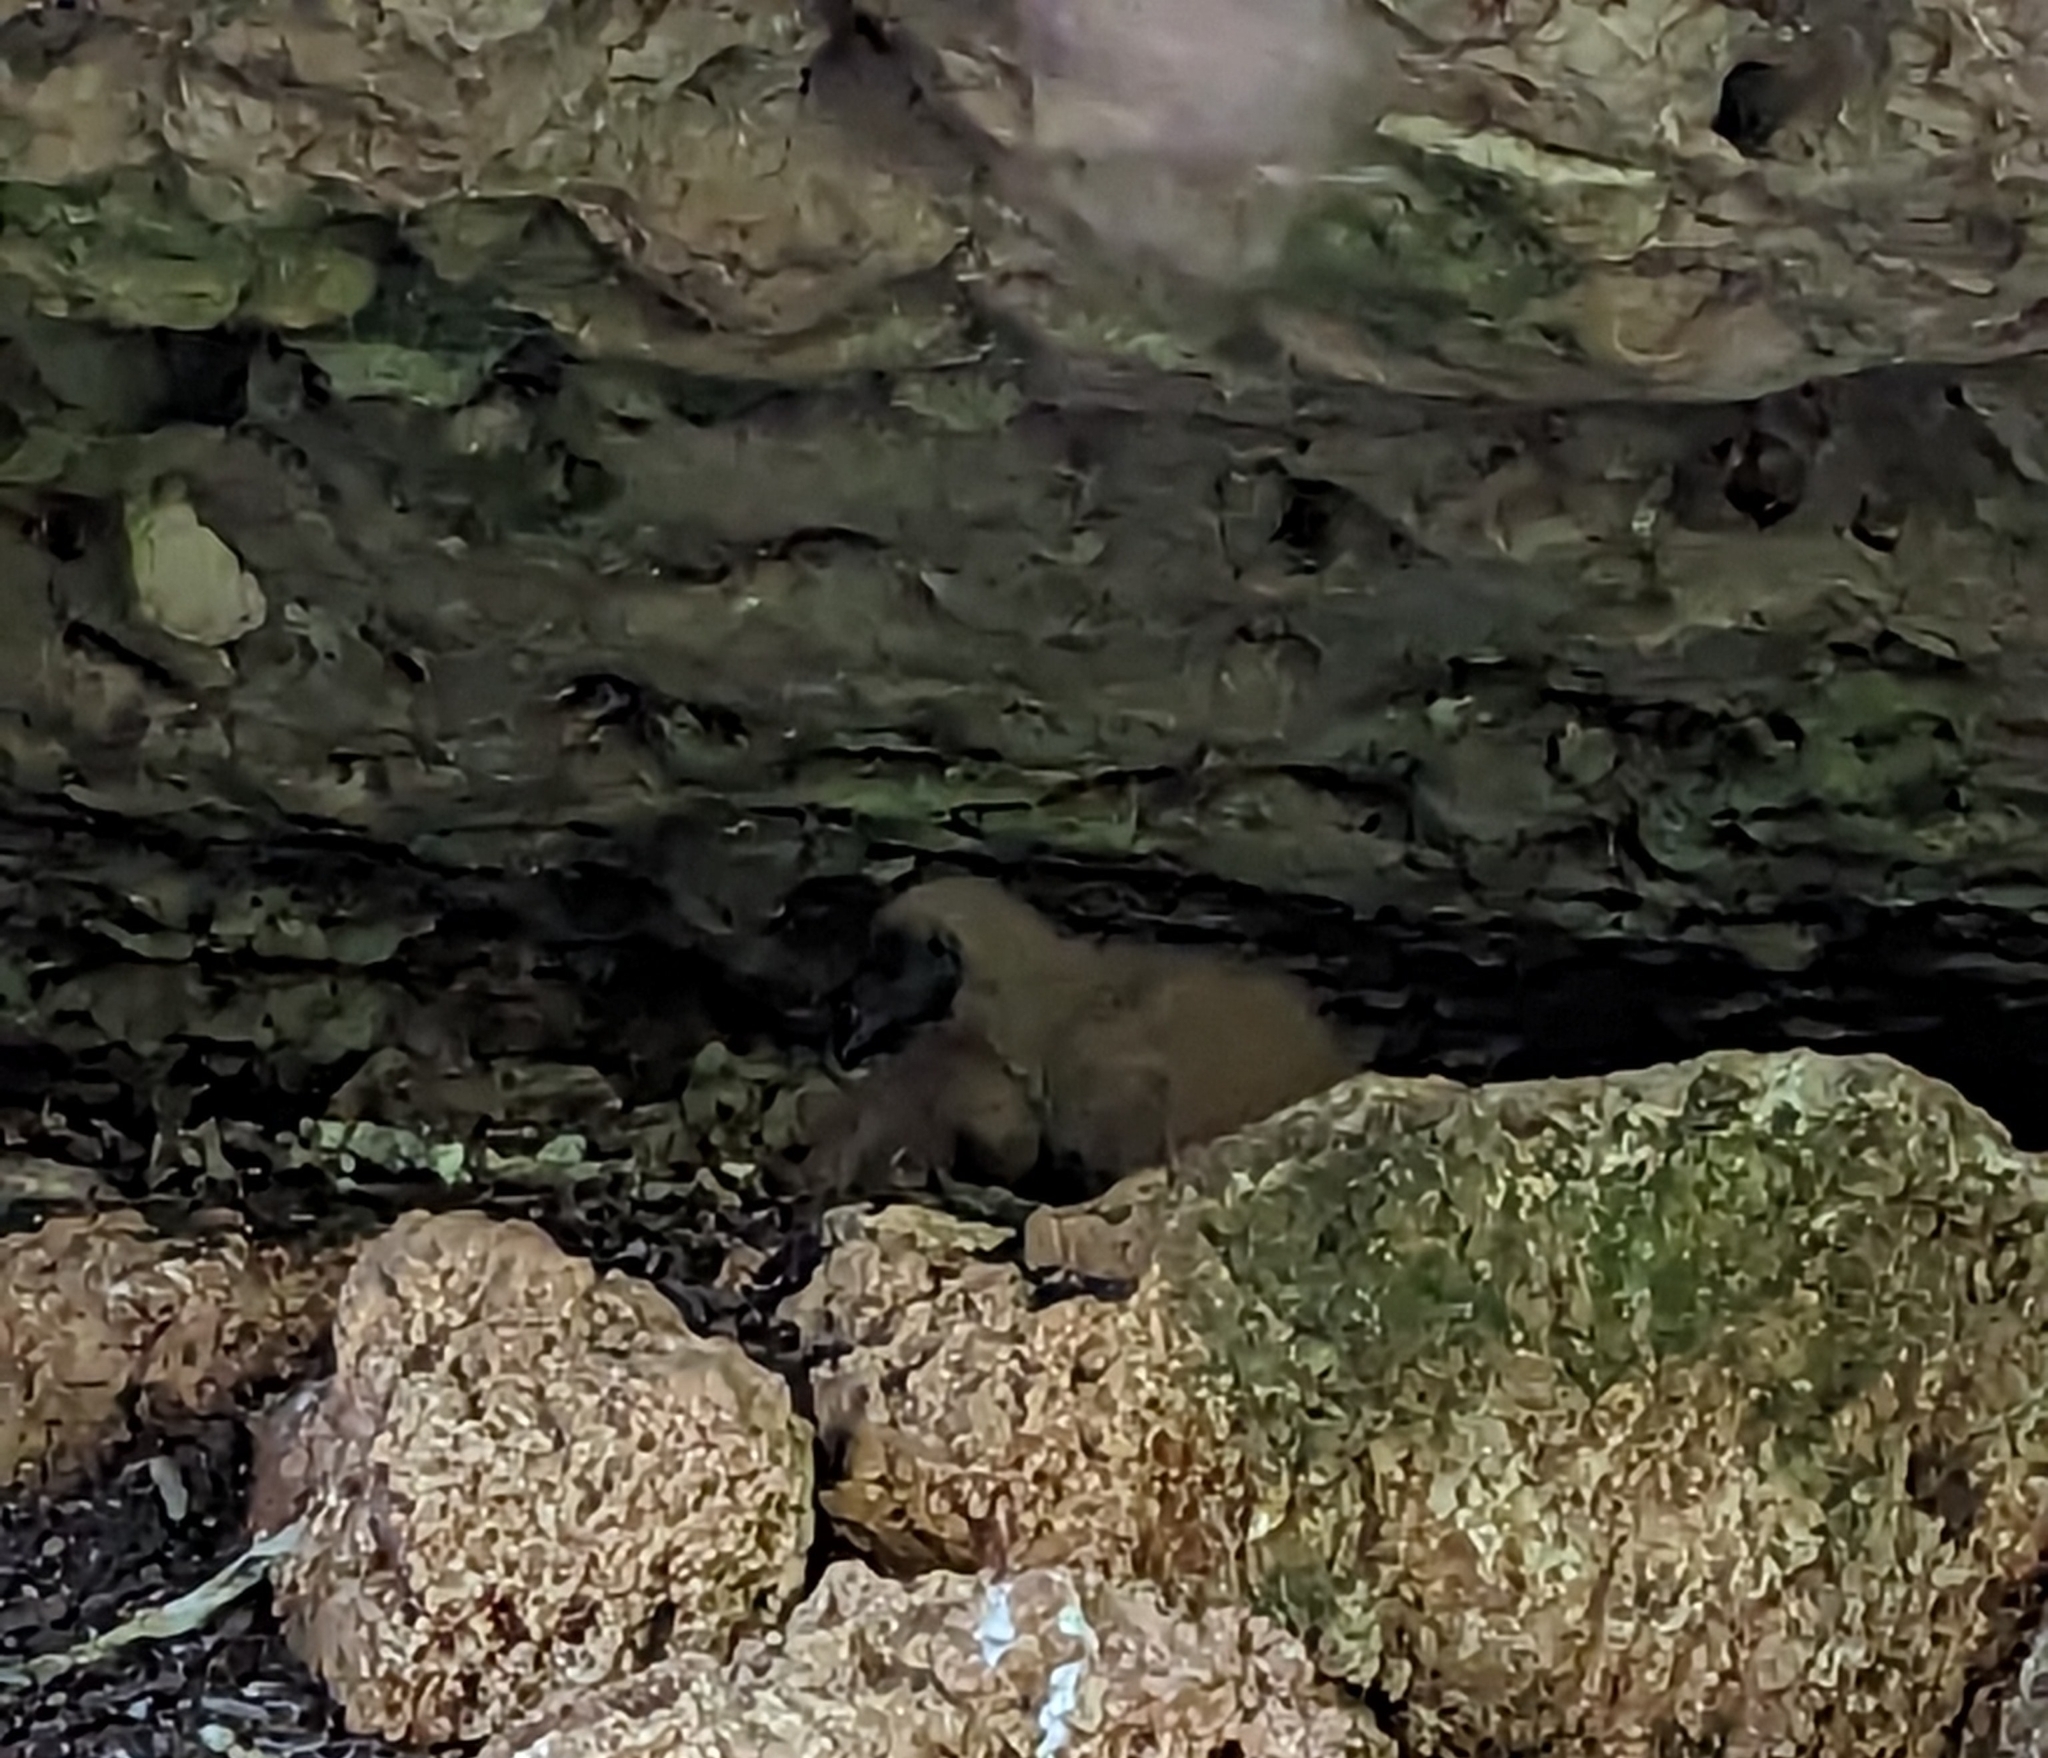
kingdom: Animalia
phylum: Chordata
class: Aves
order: Accipitriformes
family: Cathartidae
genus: Coragyps
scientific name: Coragyps atratus
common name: Black vulture
